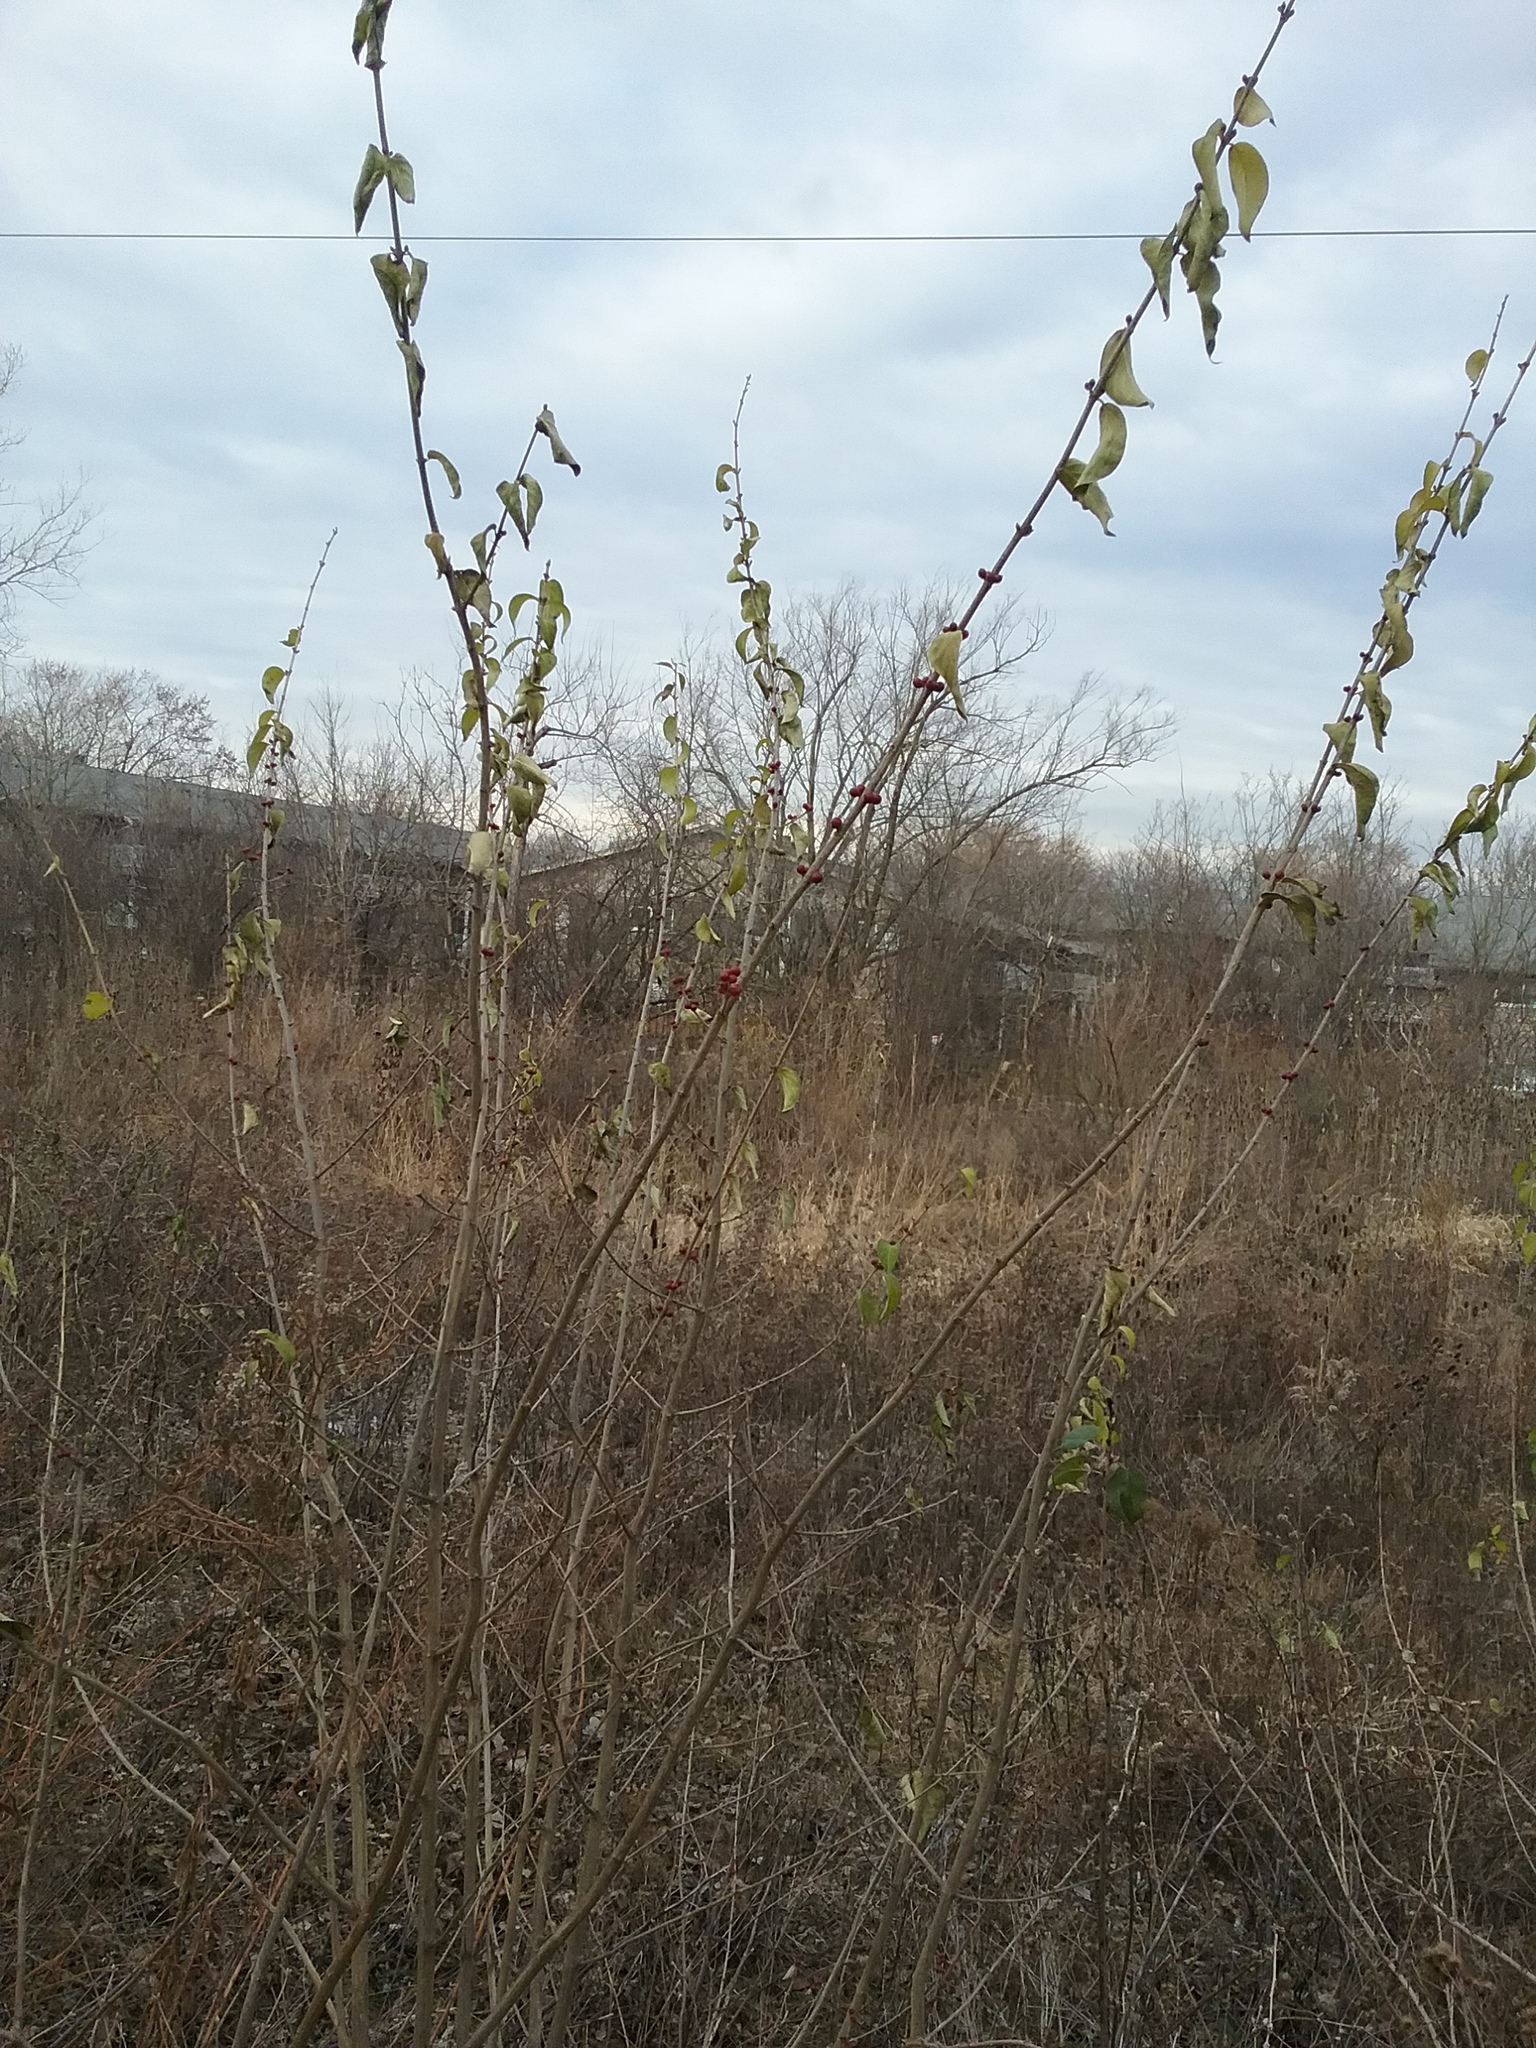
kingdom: Plantae
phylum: Tracheophyta
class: Magnoliopsida
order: Dipsacales
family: Caprifoliaceae
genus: Lonicera
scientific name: Lonicera maackii
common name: Amur honeysuckle
